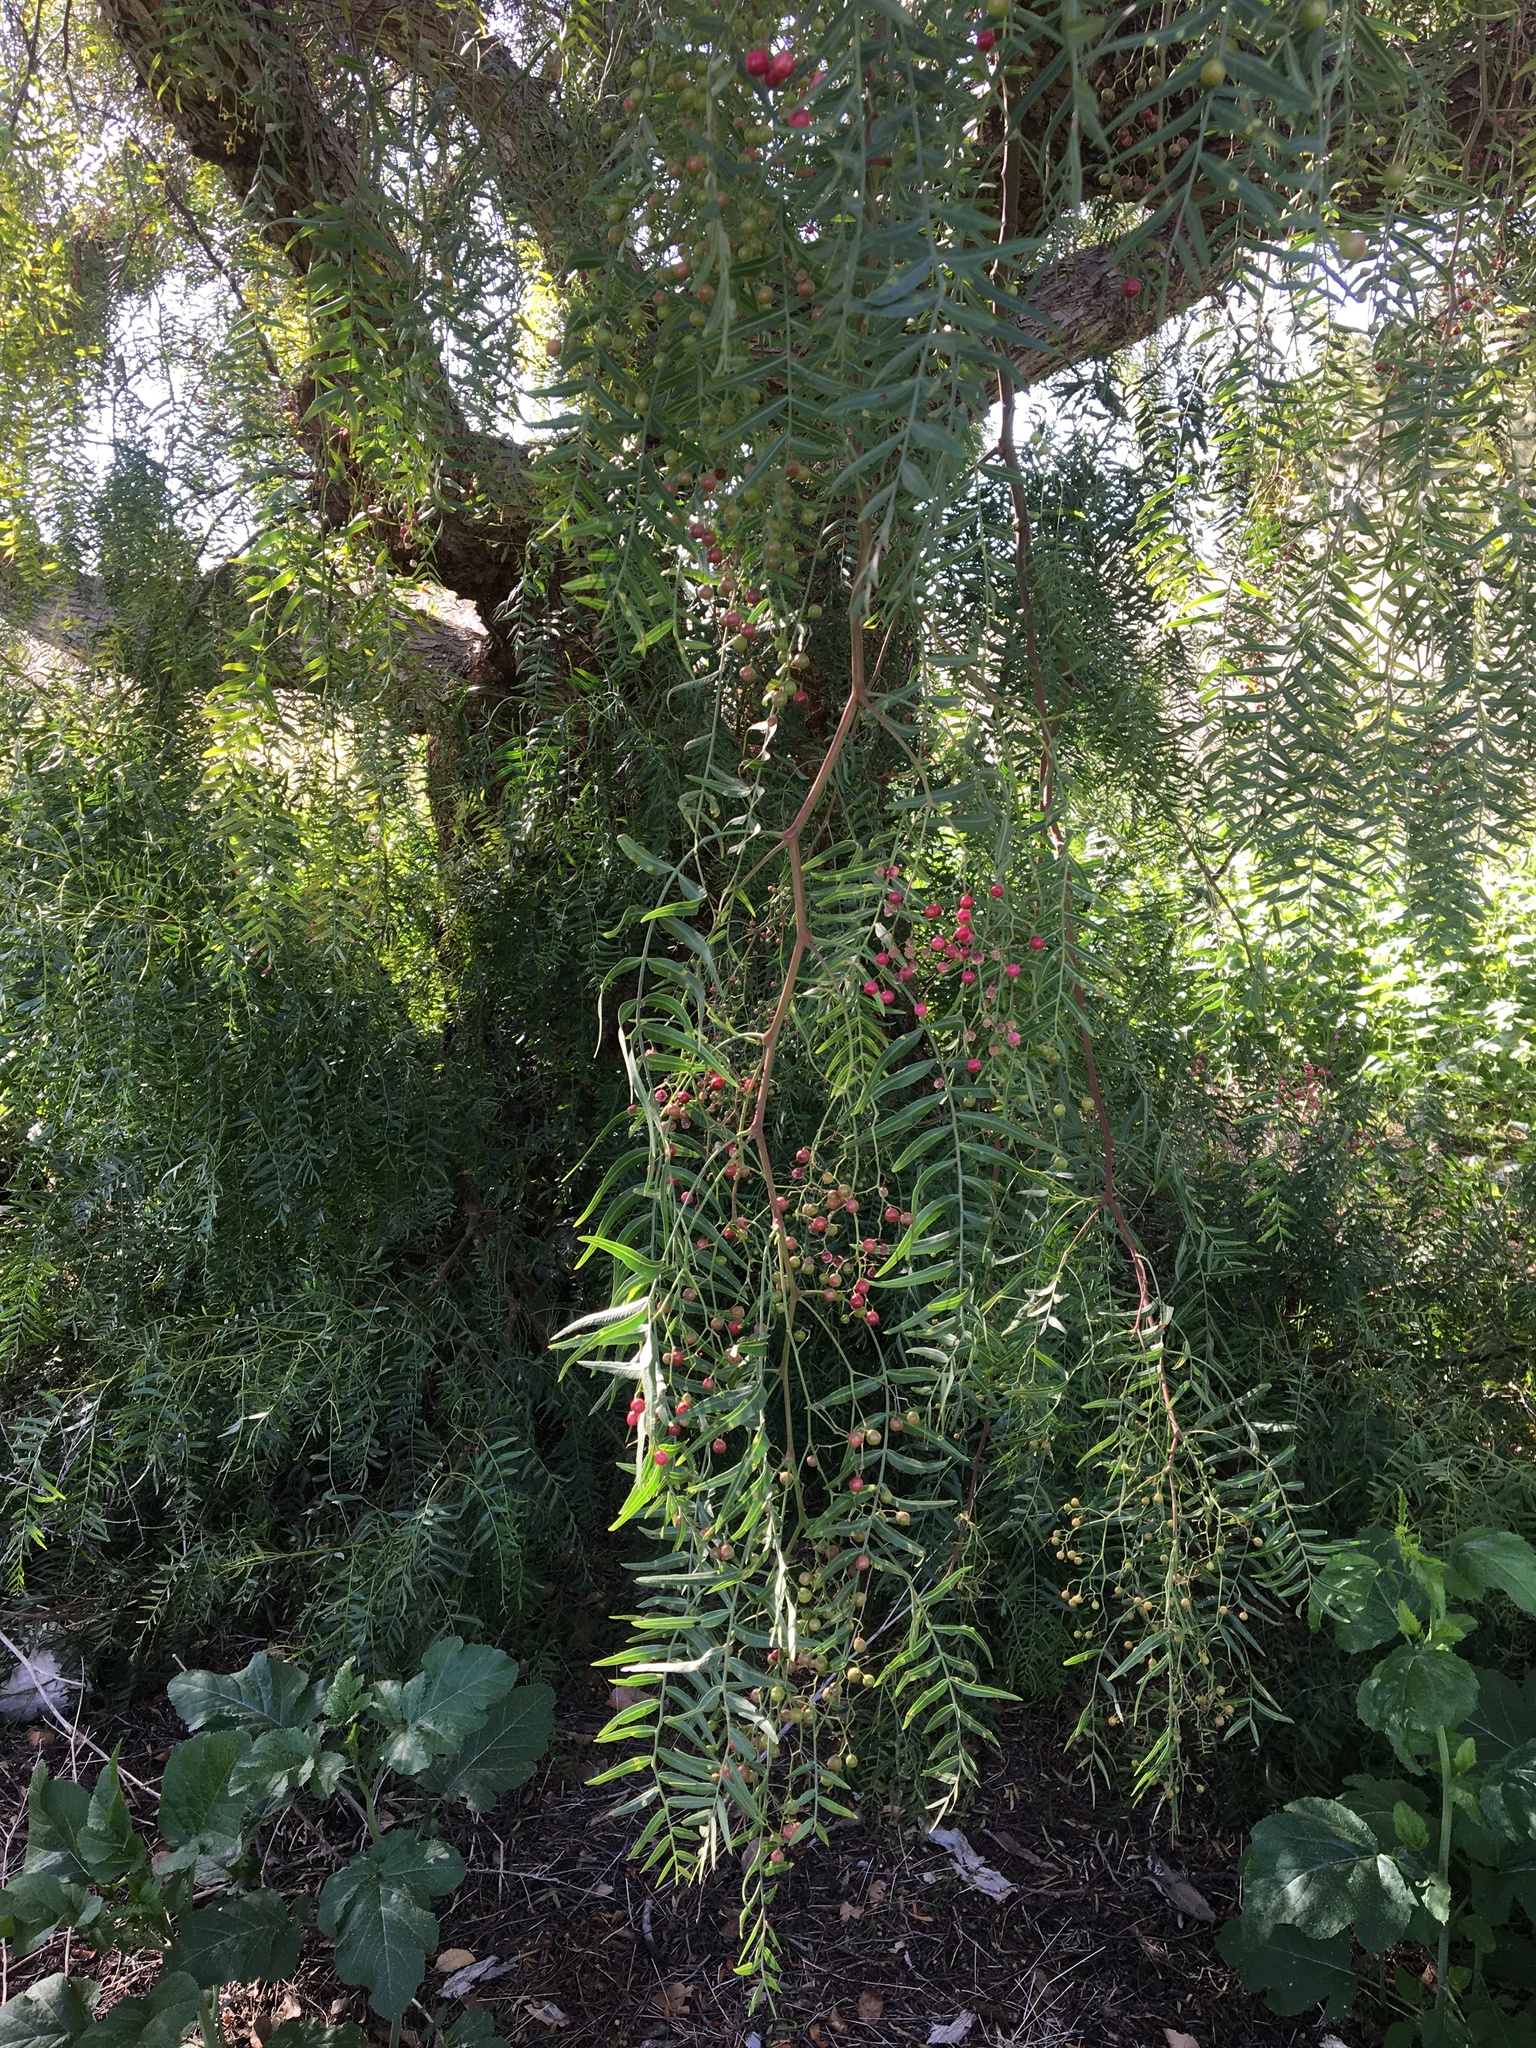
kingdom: Plantae
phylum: Tracheophyta
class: Magnoliopsida
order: Sapindales
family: Anacardiaceae
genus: Schinus
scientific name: Schinus molle
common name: Peruvian peppertree
